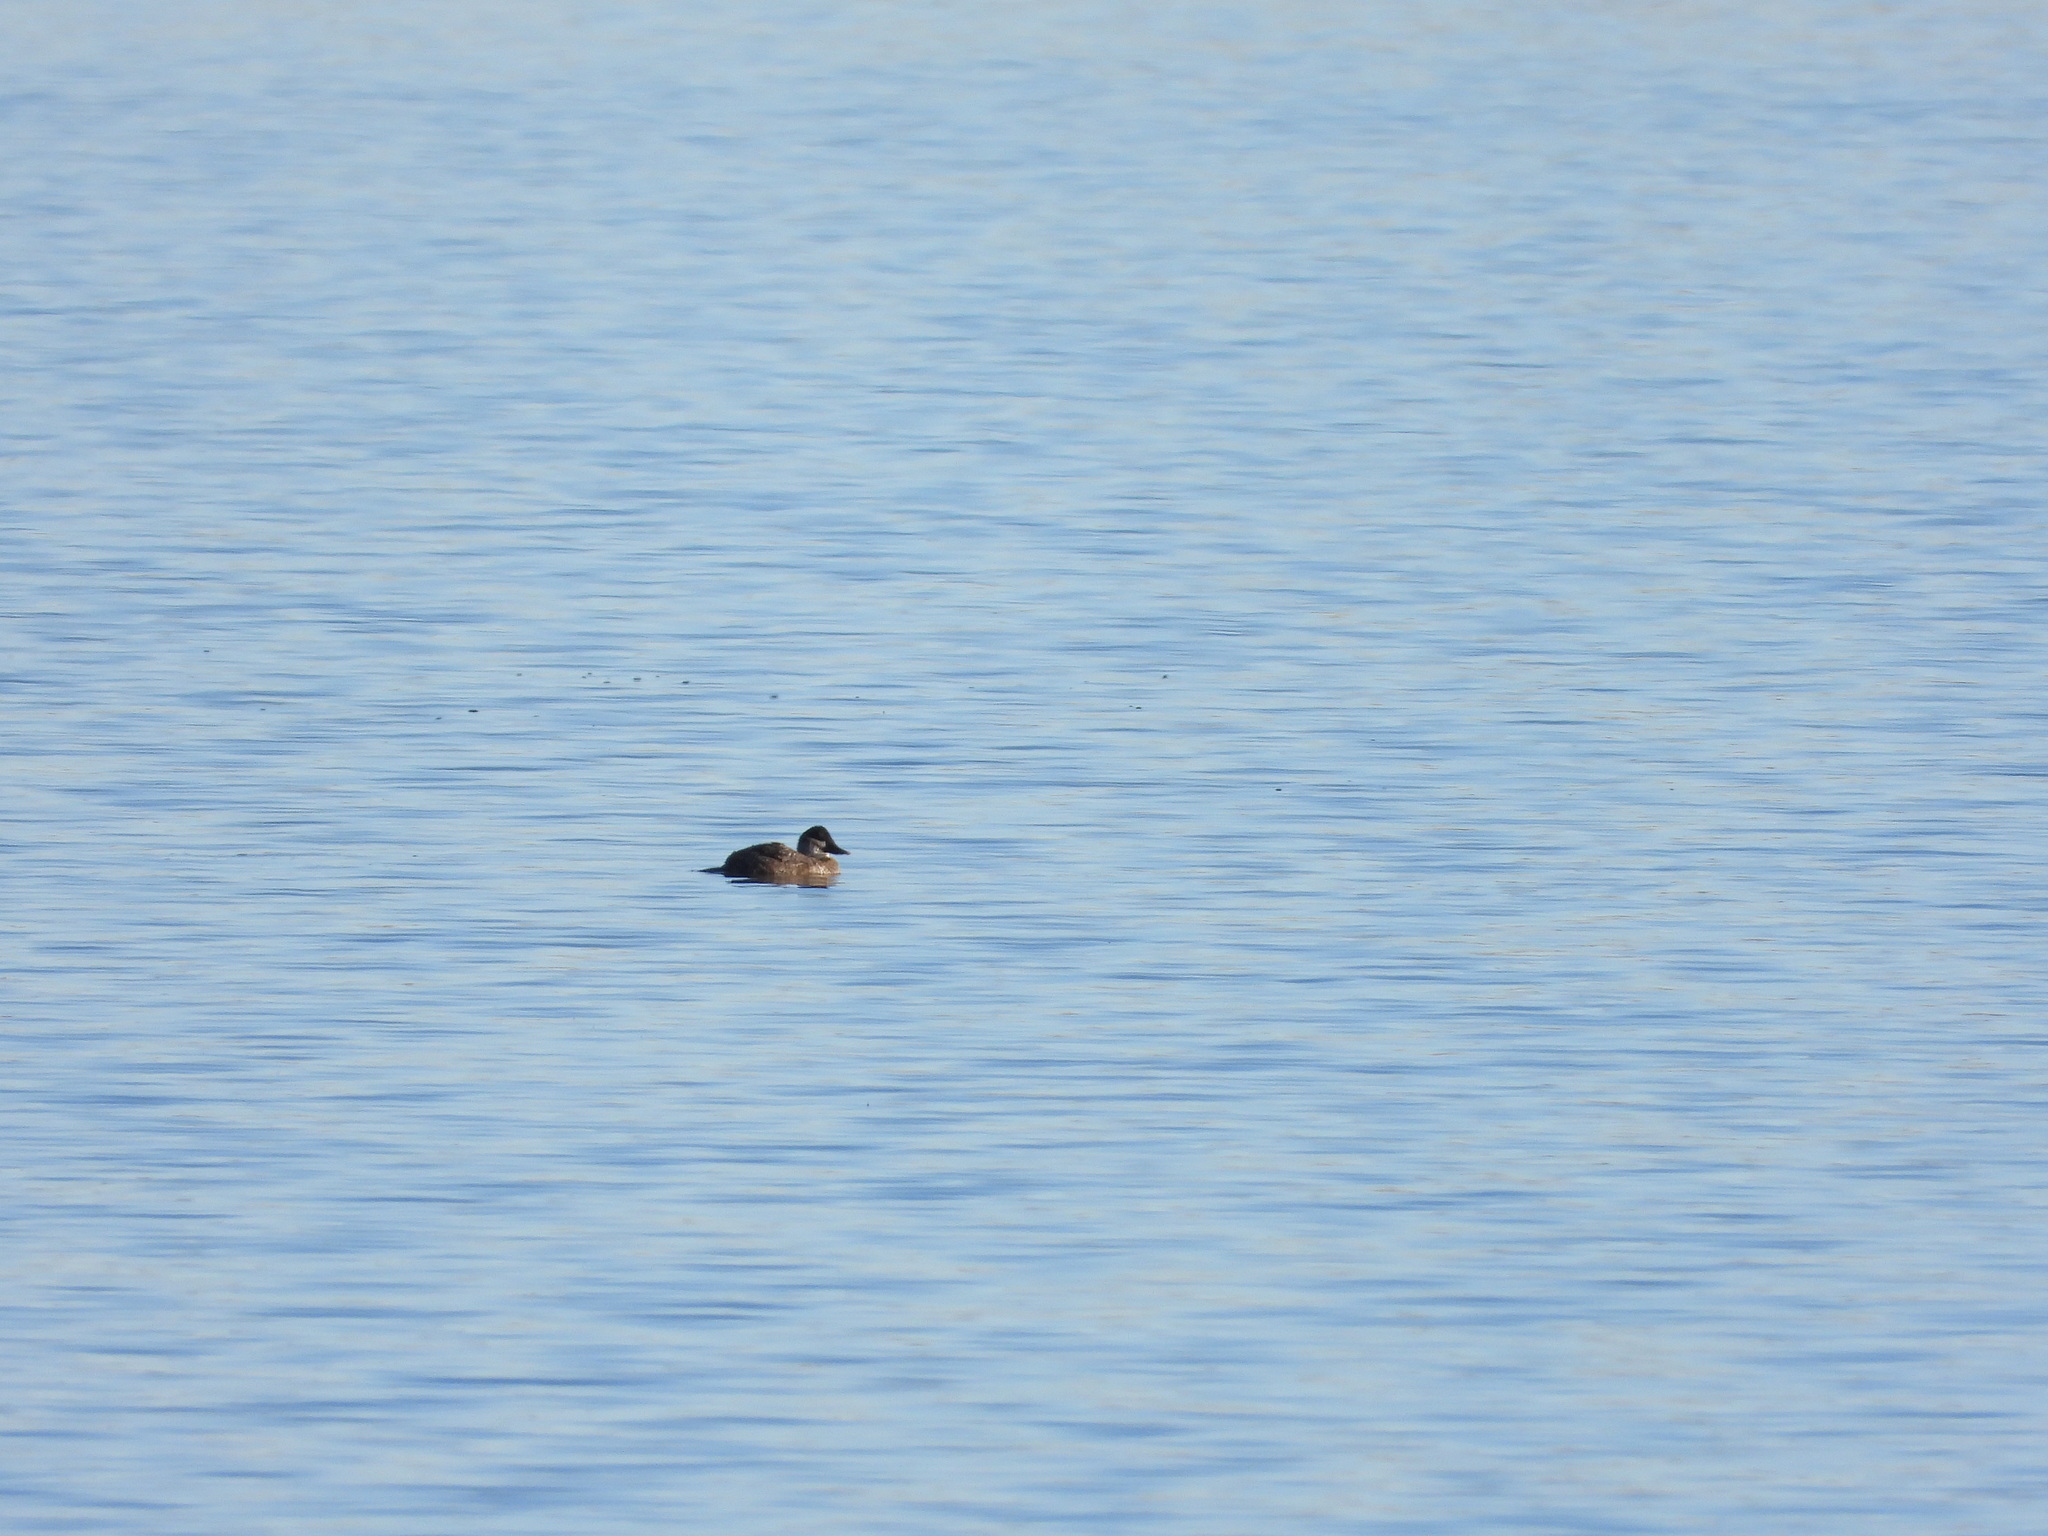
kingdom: Animalia
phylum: Chordata
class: Aves
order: Anseriformes
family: Anatidae
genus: Oxyura
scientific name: Oxyura jamaicensis
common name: Ruddy duck
